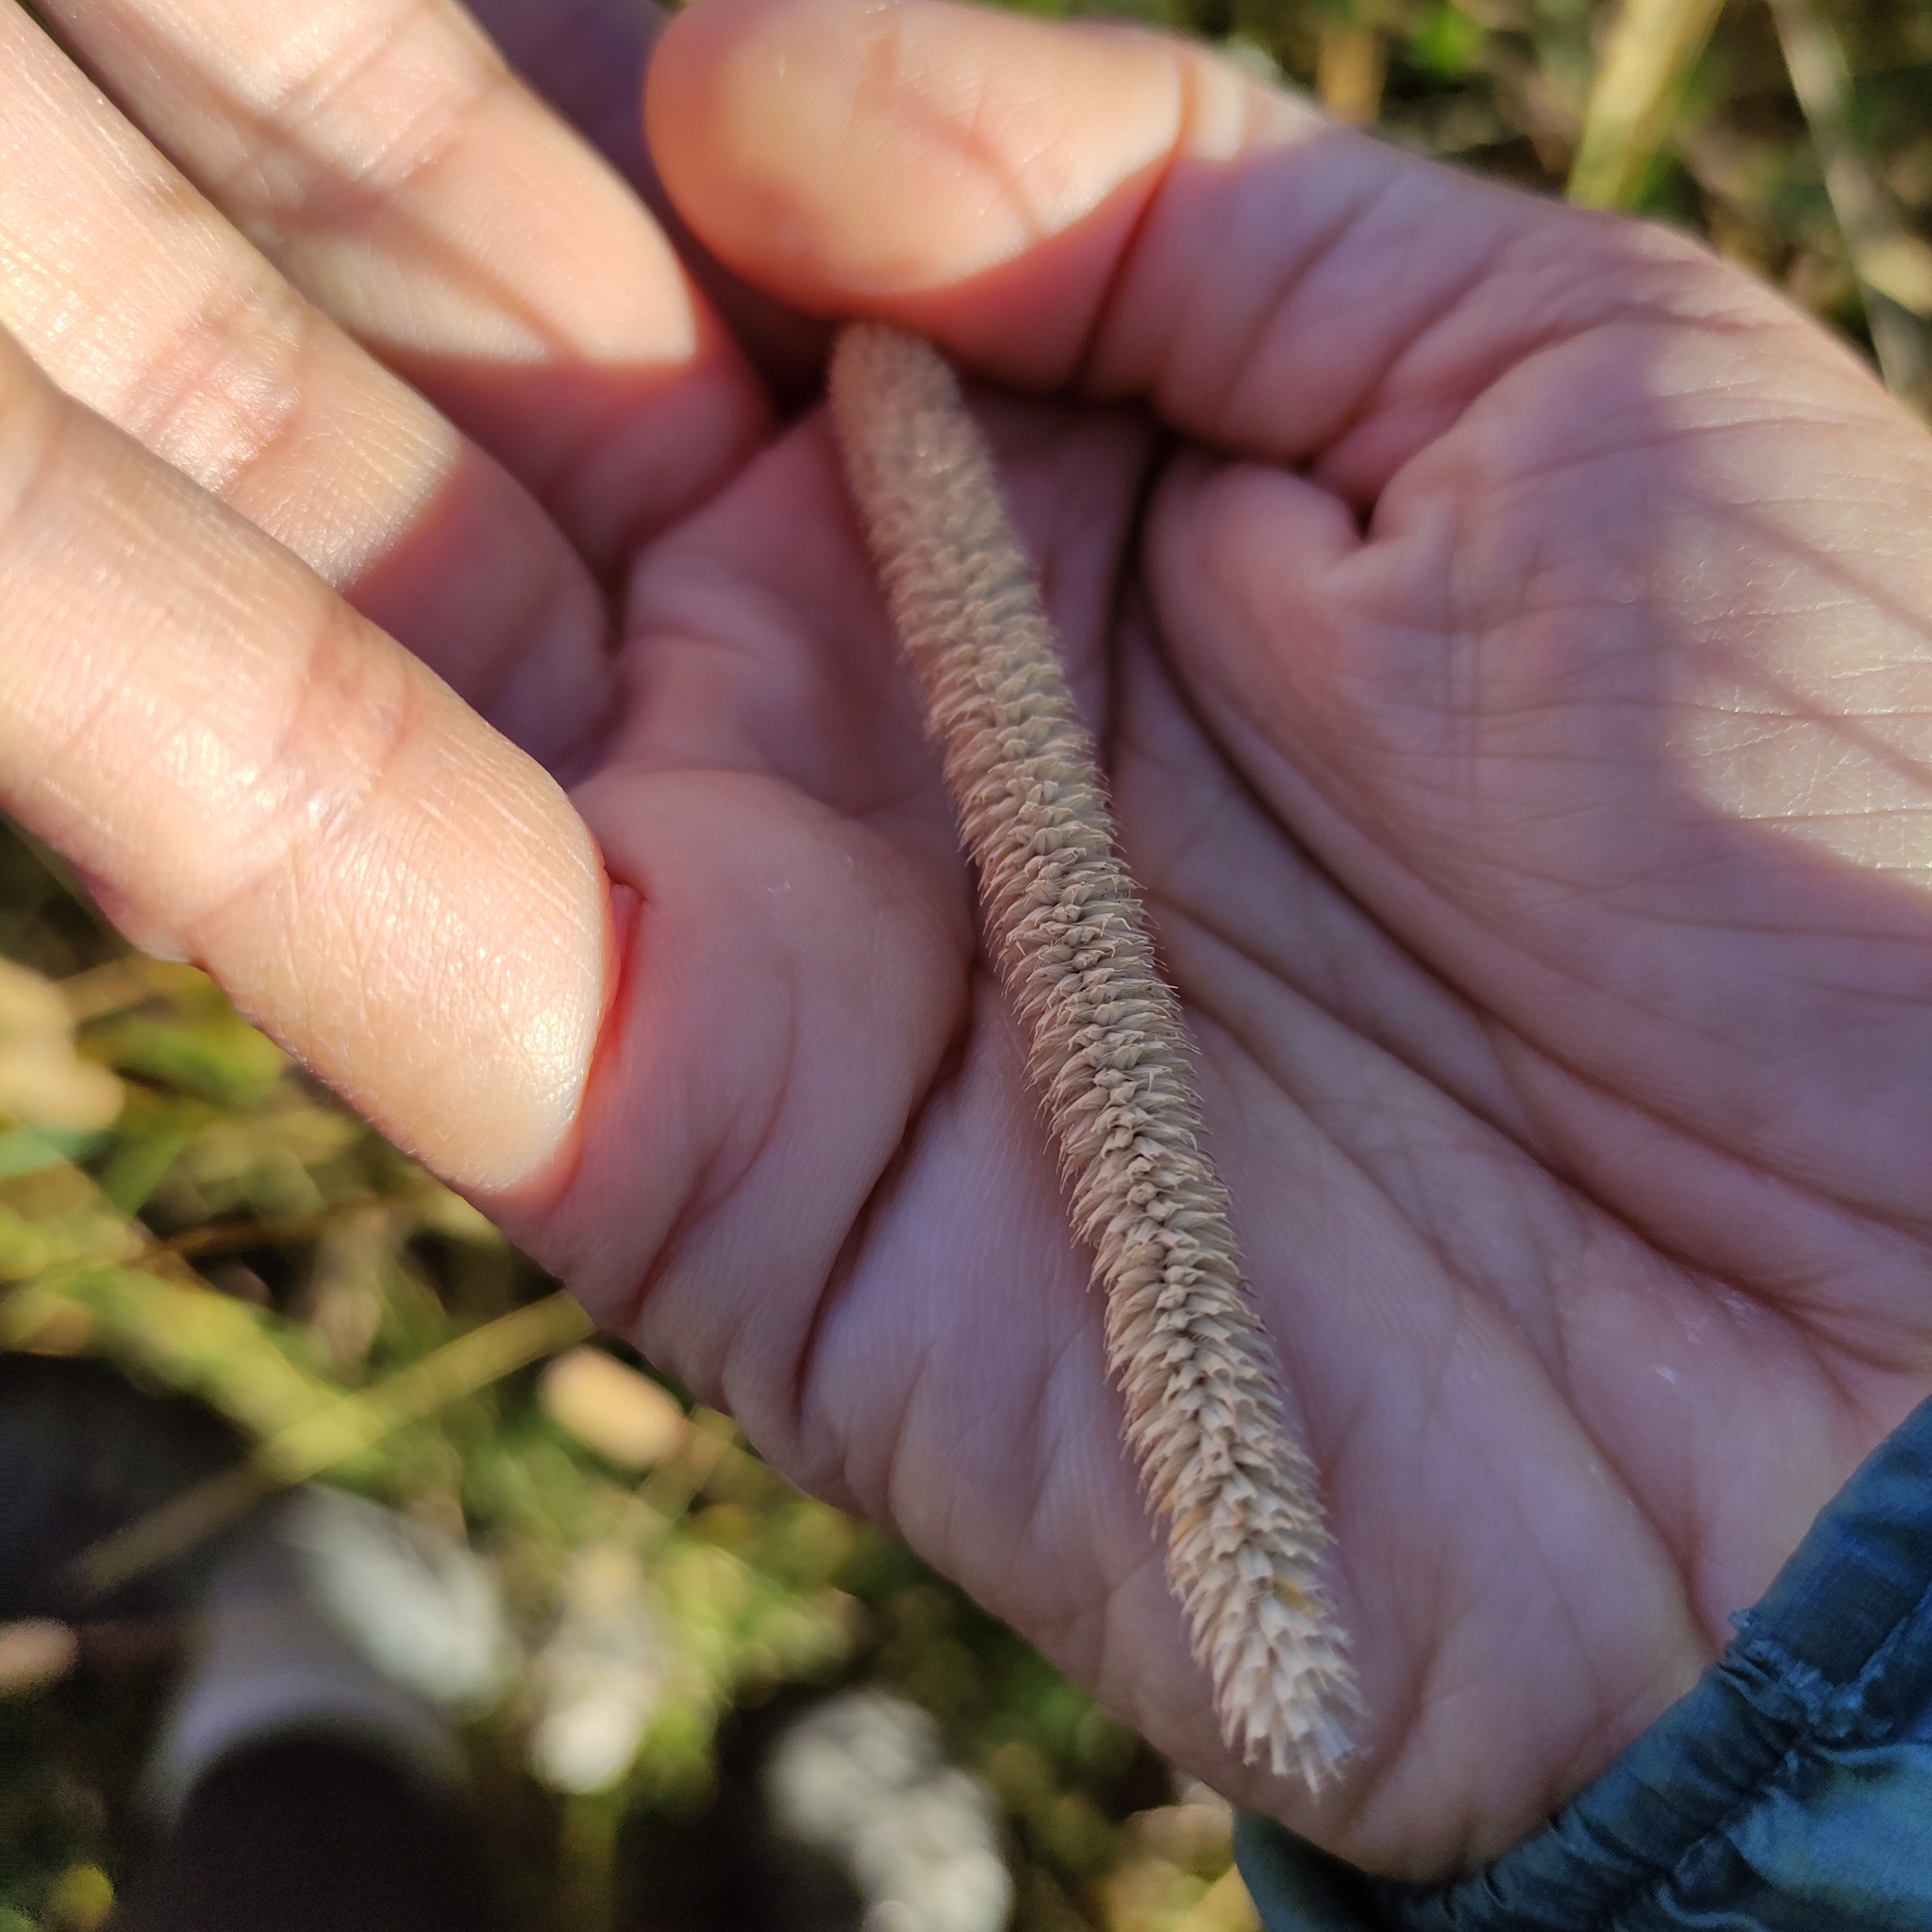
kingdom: Plantae
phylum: Tracheophyta
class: Liliopsida
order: Poales
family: Poaceae
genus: Phleum
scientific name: Phleum pratense
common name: Timothy grass
